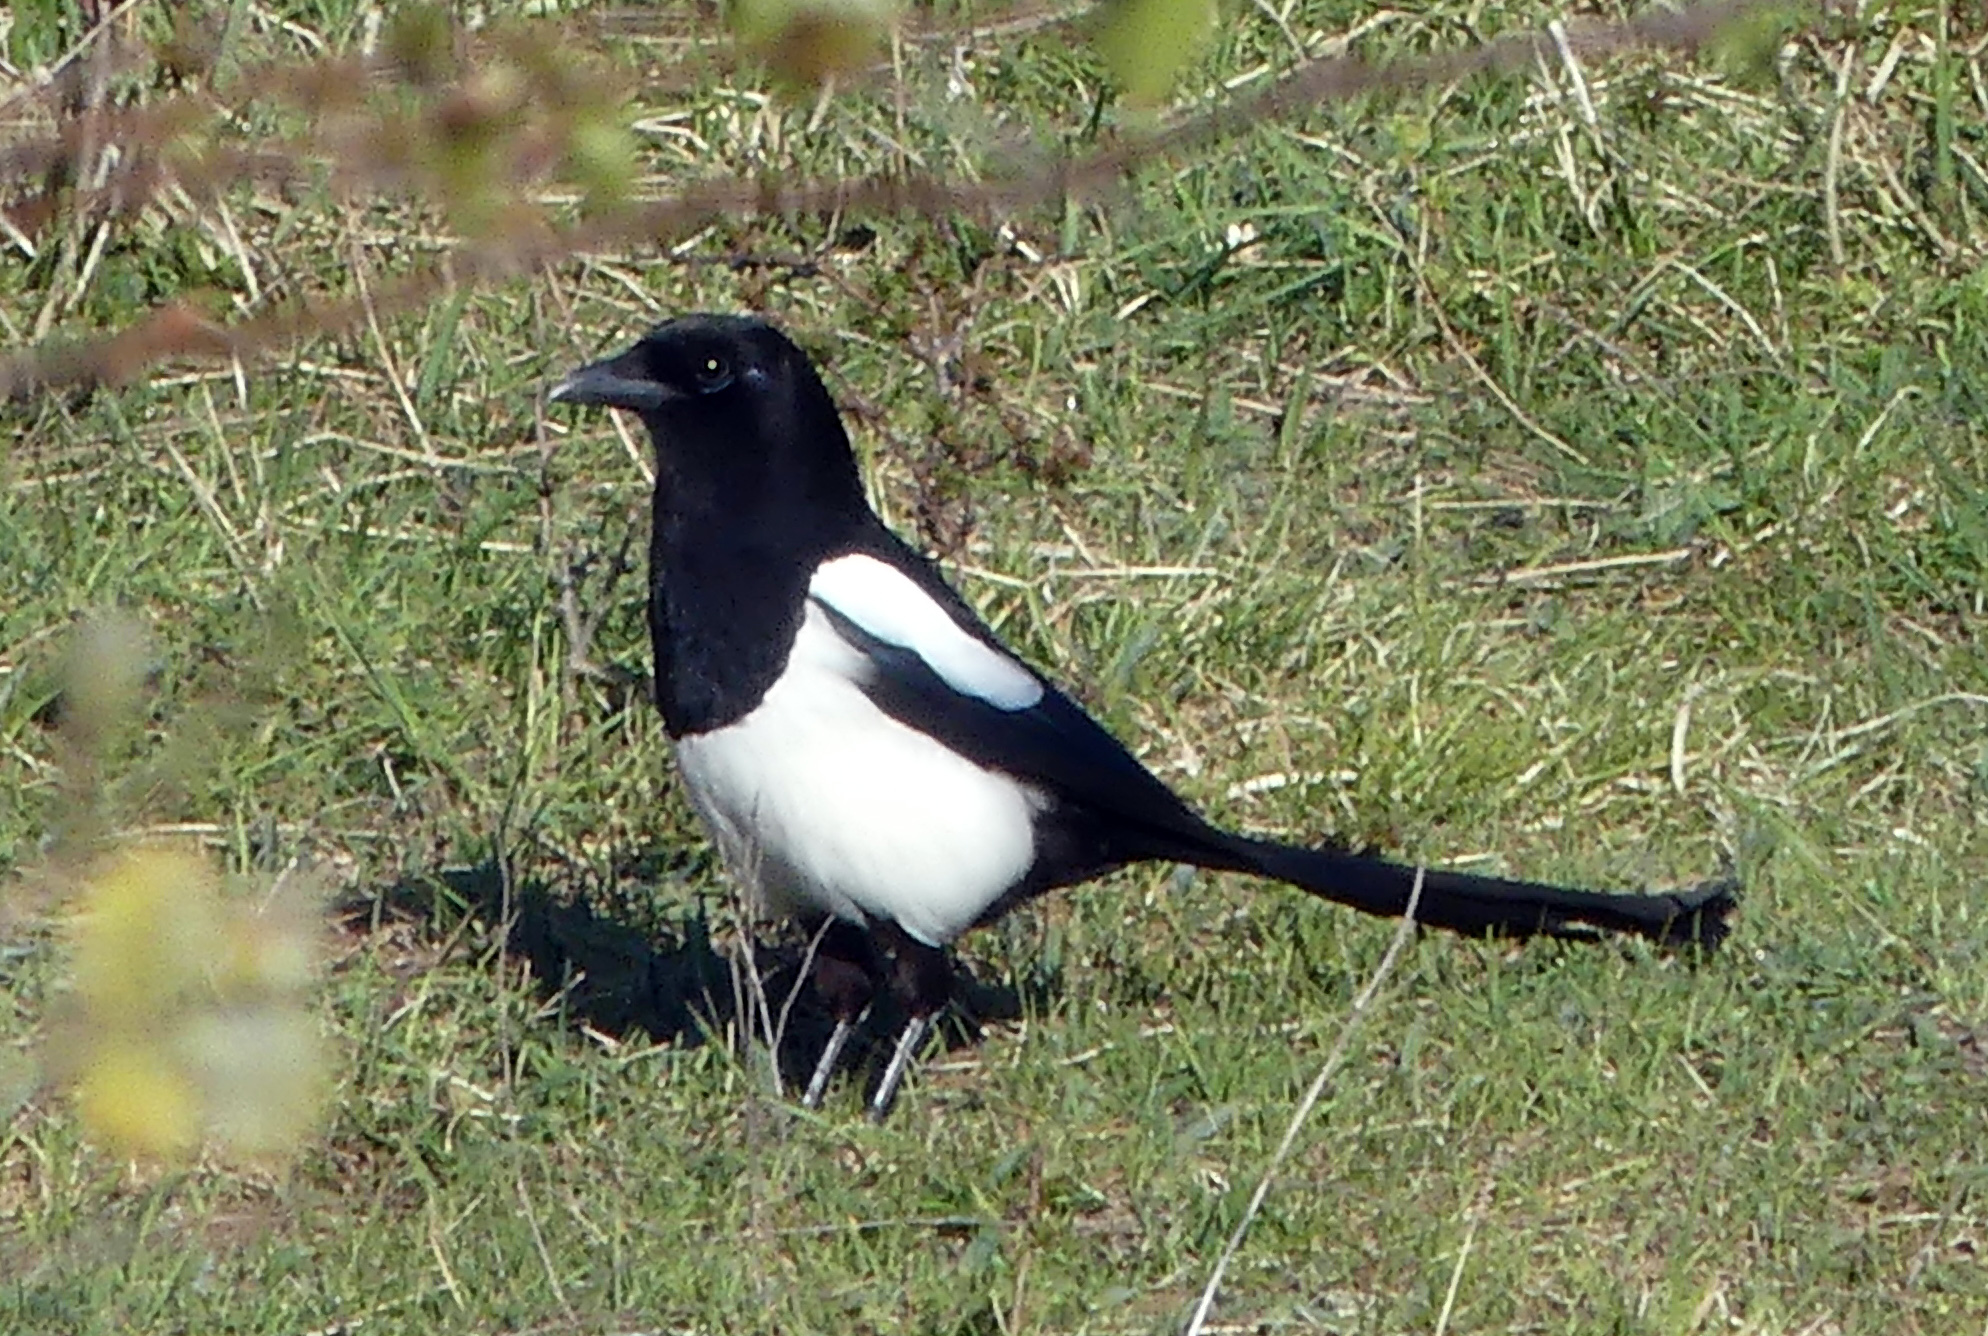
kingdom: Animalia
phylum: Chordata
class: Aves
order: Passeriformes
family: Corvidae
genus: Pica
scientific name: Pica pica
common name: Eurasian magpie
